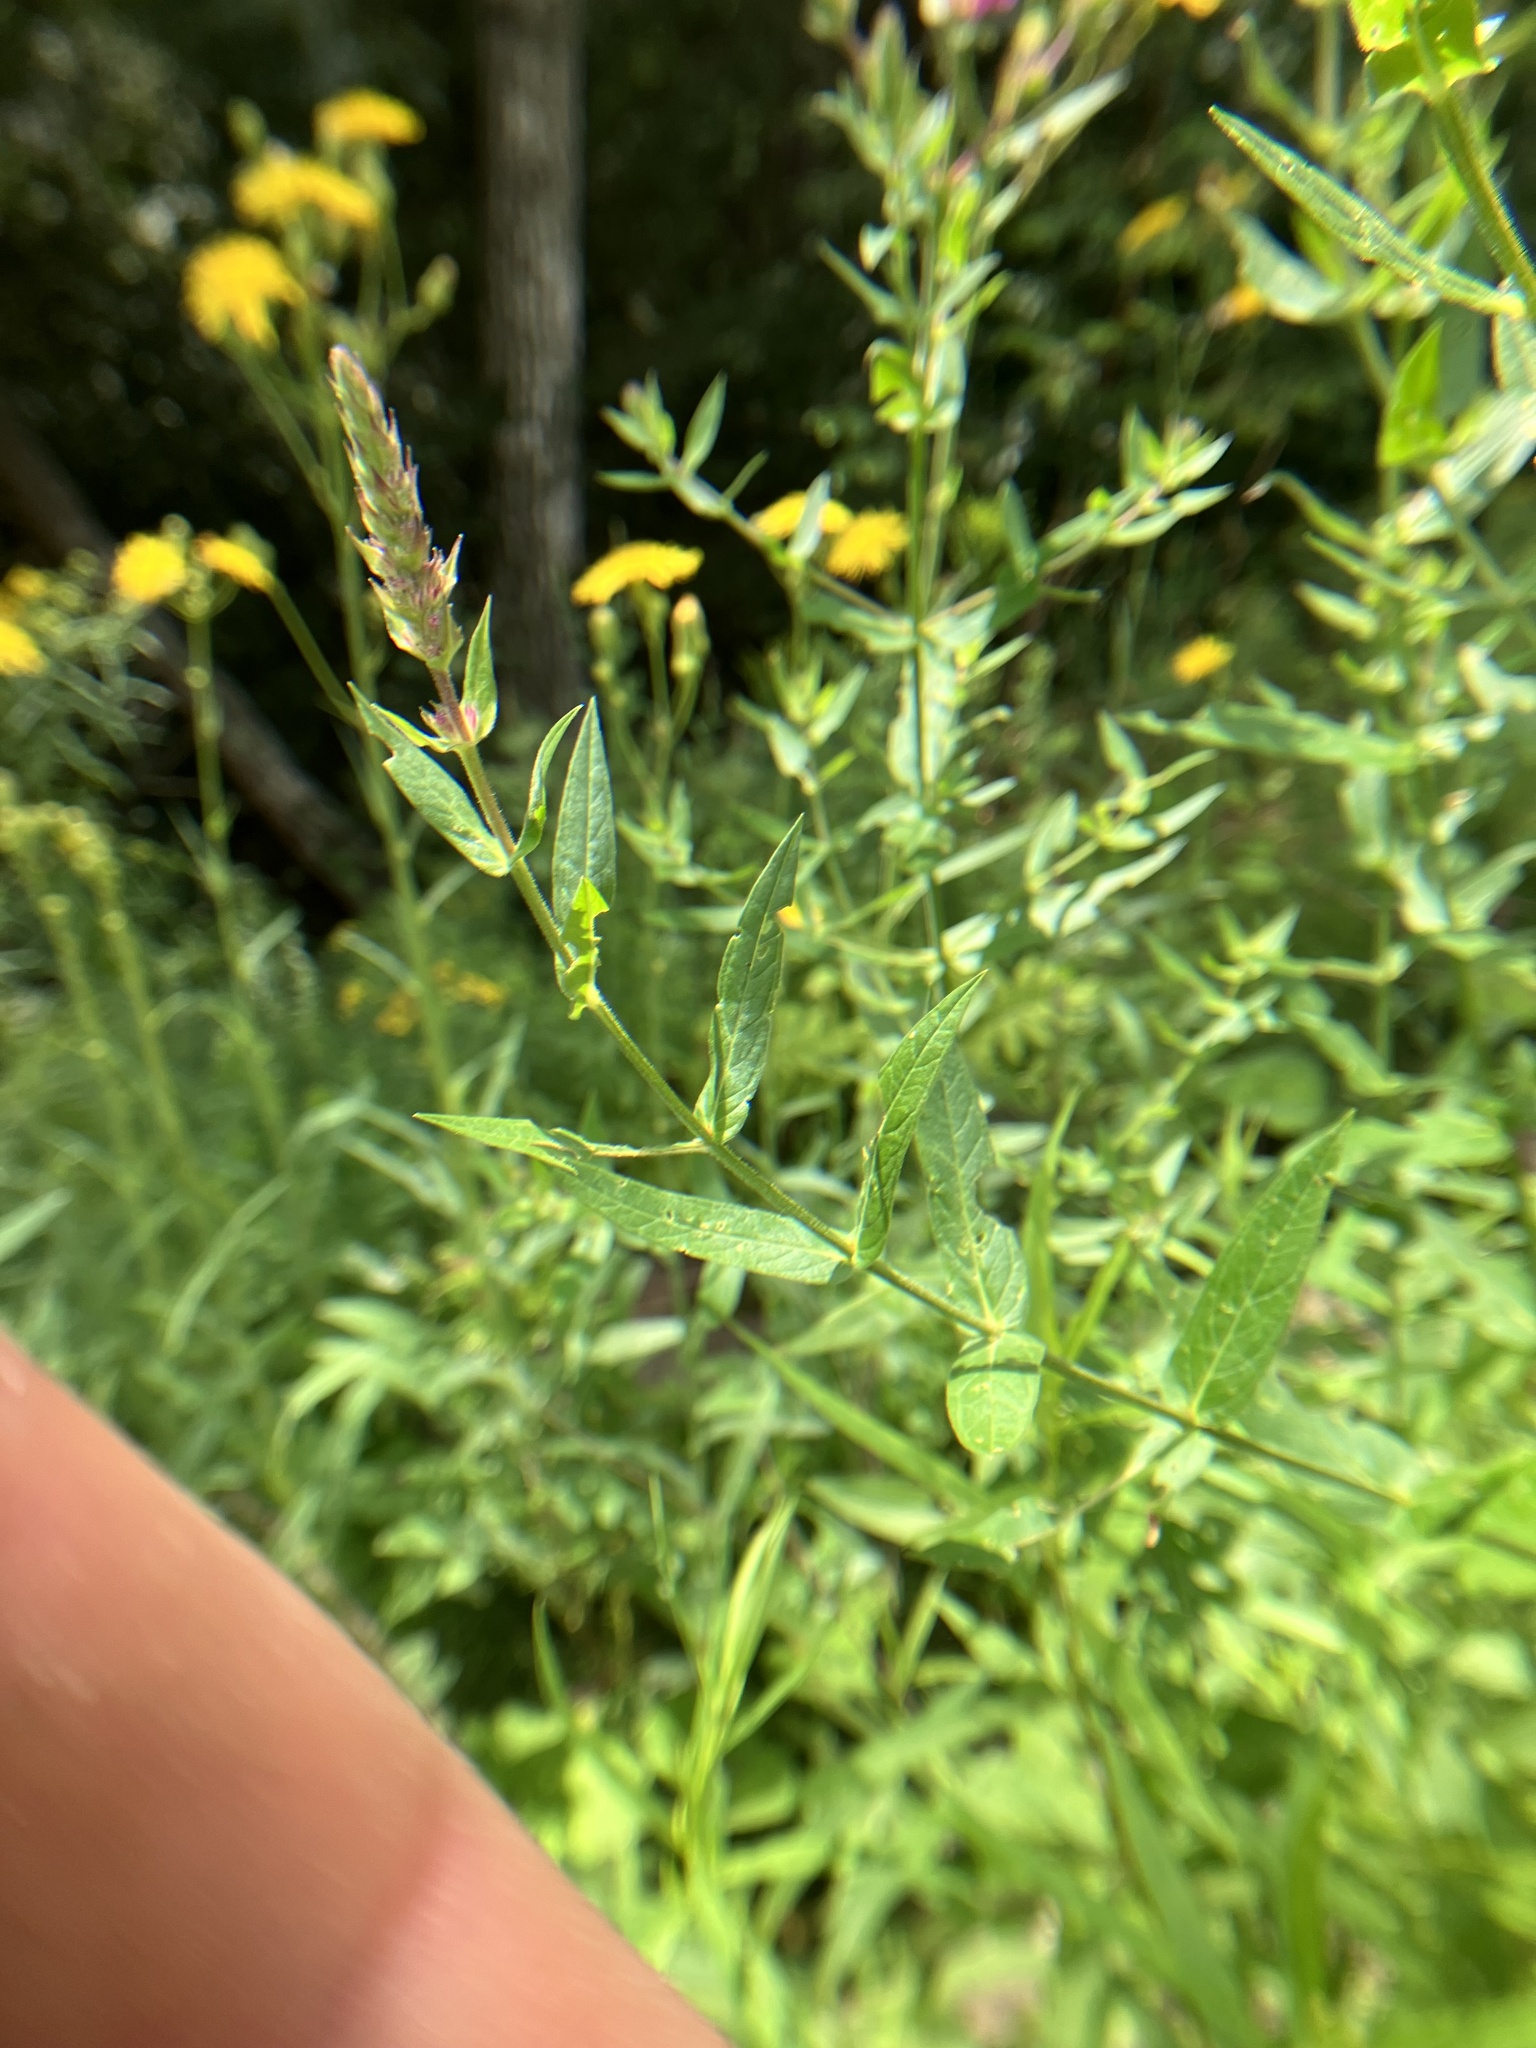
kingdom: Plantae
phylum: Tracheophyta
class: Magnoliopsida
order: Myrtales
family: Lythraceae
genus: Lythrum
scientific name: Lythrum salicaria
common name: Purple loosestrife
